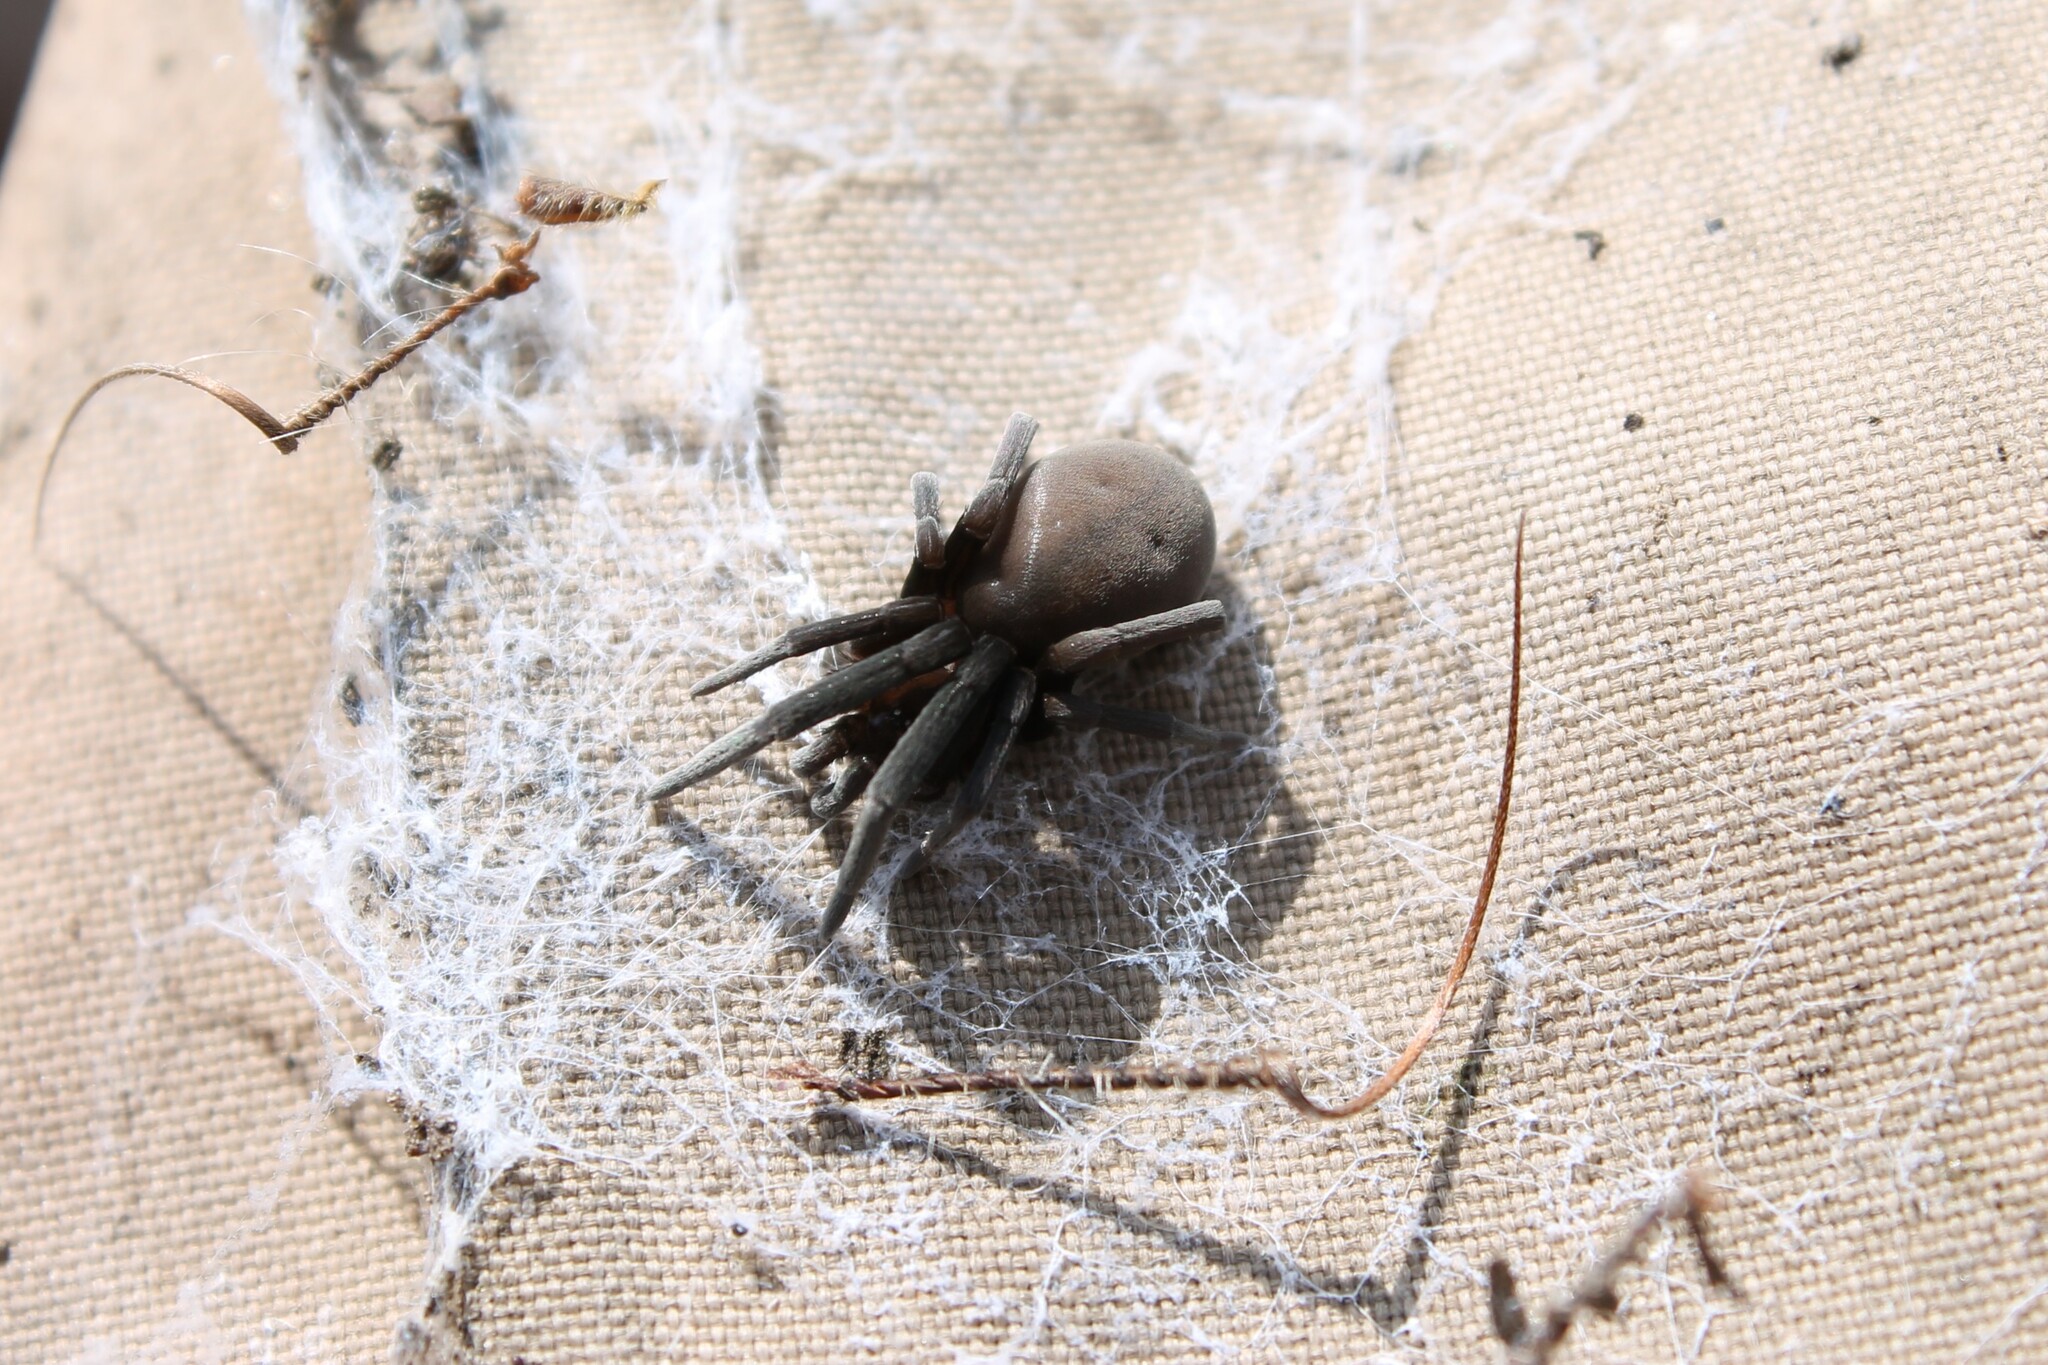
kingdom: Animalia
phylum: Arthropoda
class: Arachnida
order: Araneae
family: Filistatidae
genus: Kukulcania
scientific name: Kukulcania geophila
